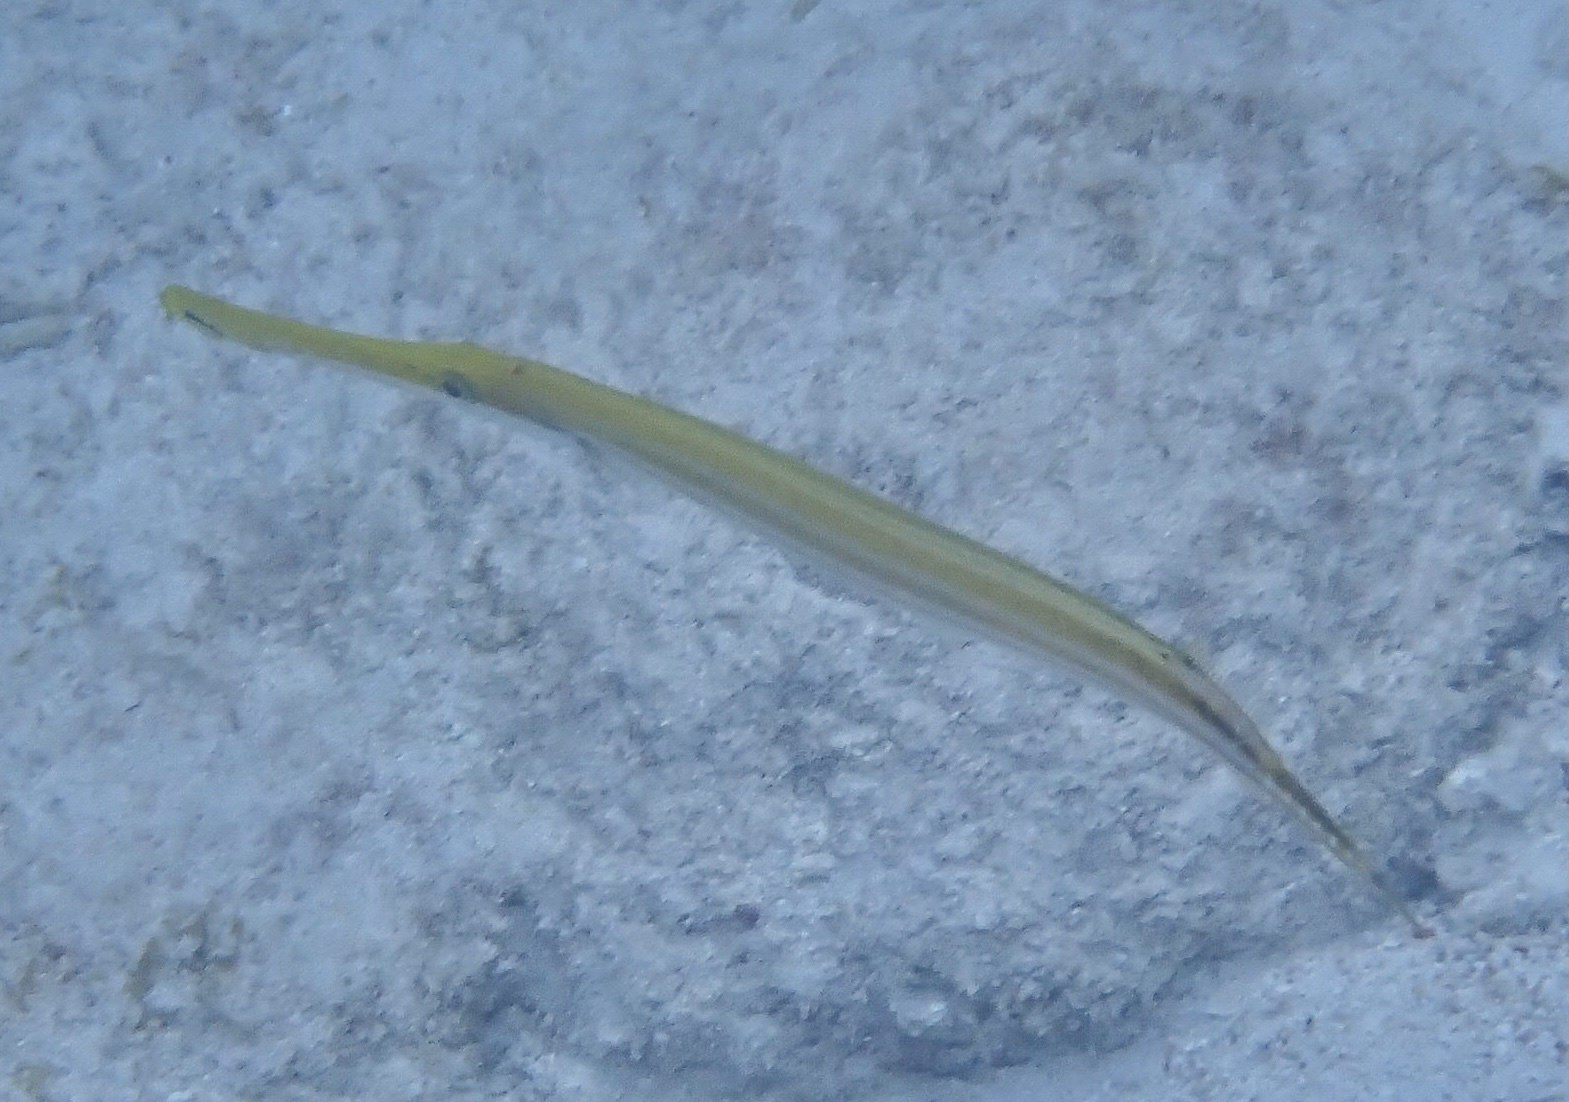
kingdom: Animalia
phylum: Chordata
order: Syngnathiformes
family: Aulostomidae
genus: Aulostomus
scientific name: Aulostomus maculatus
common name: West atlantic trumpetfish
